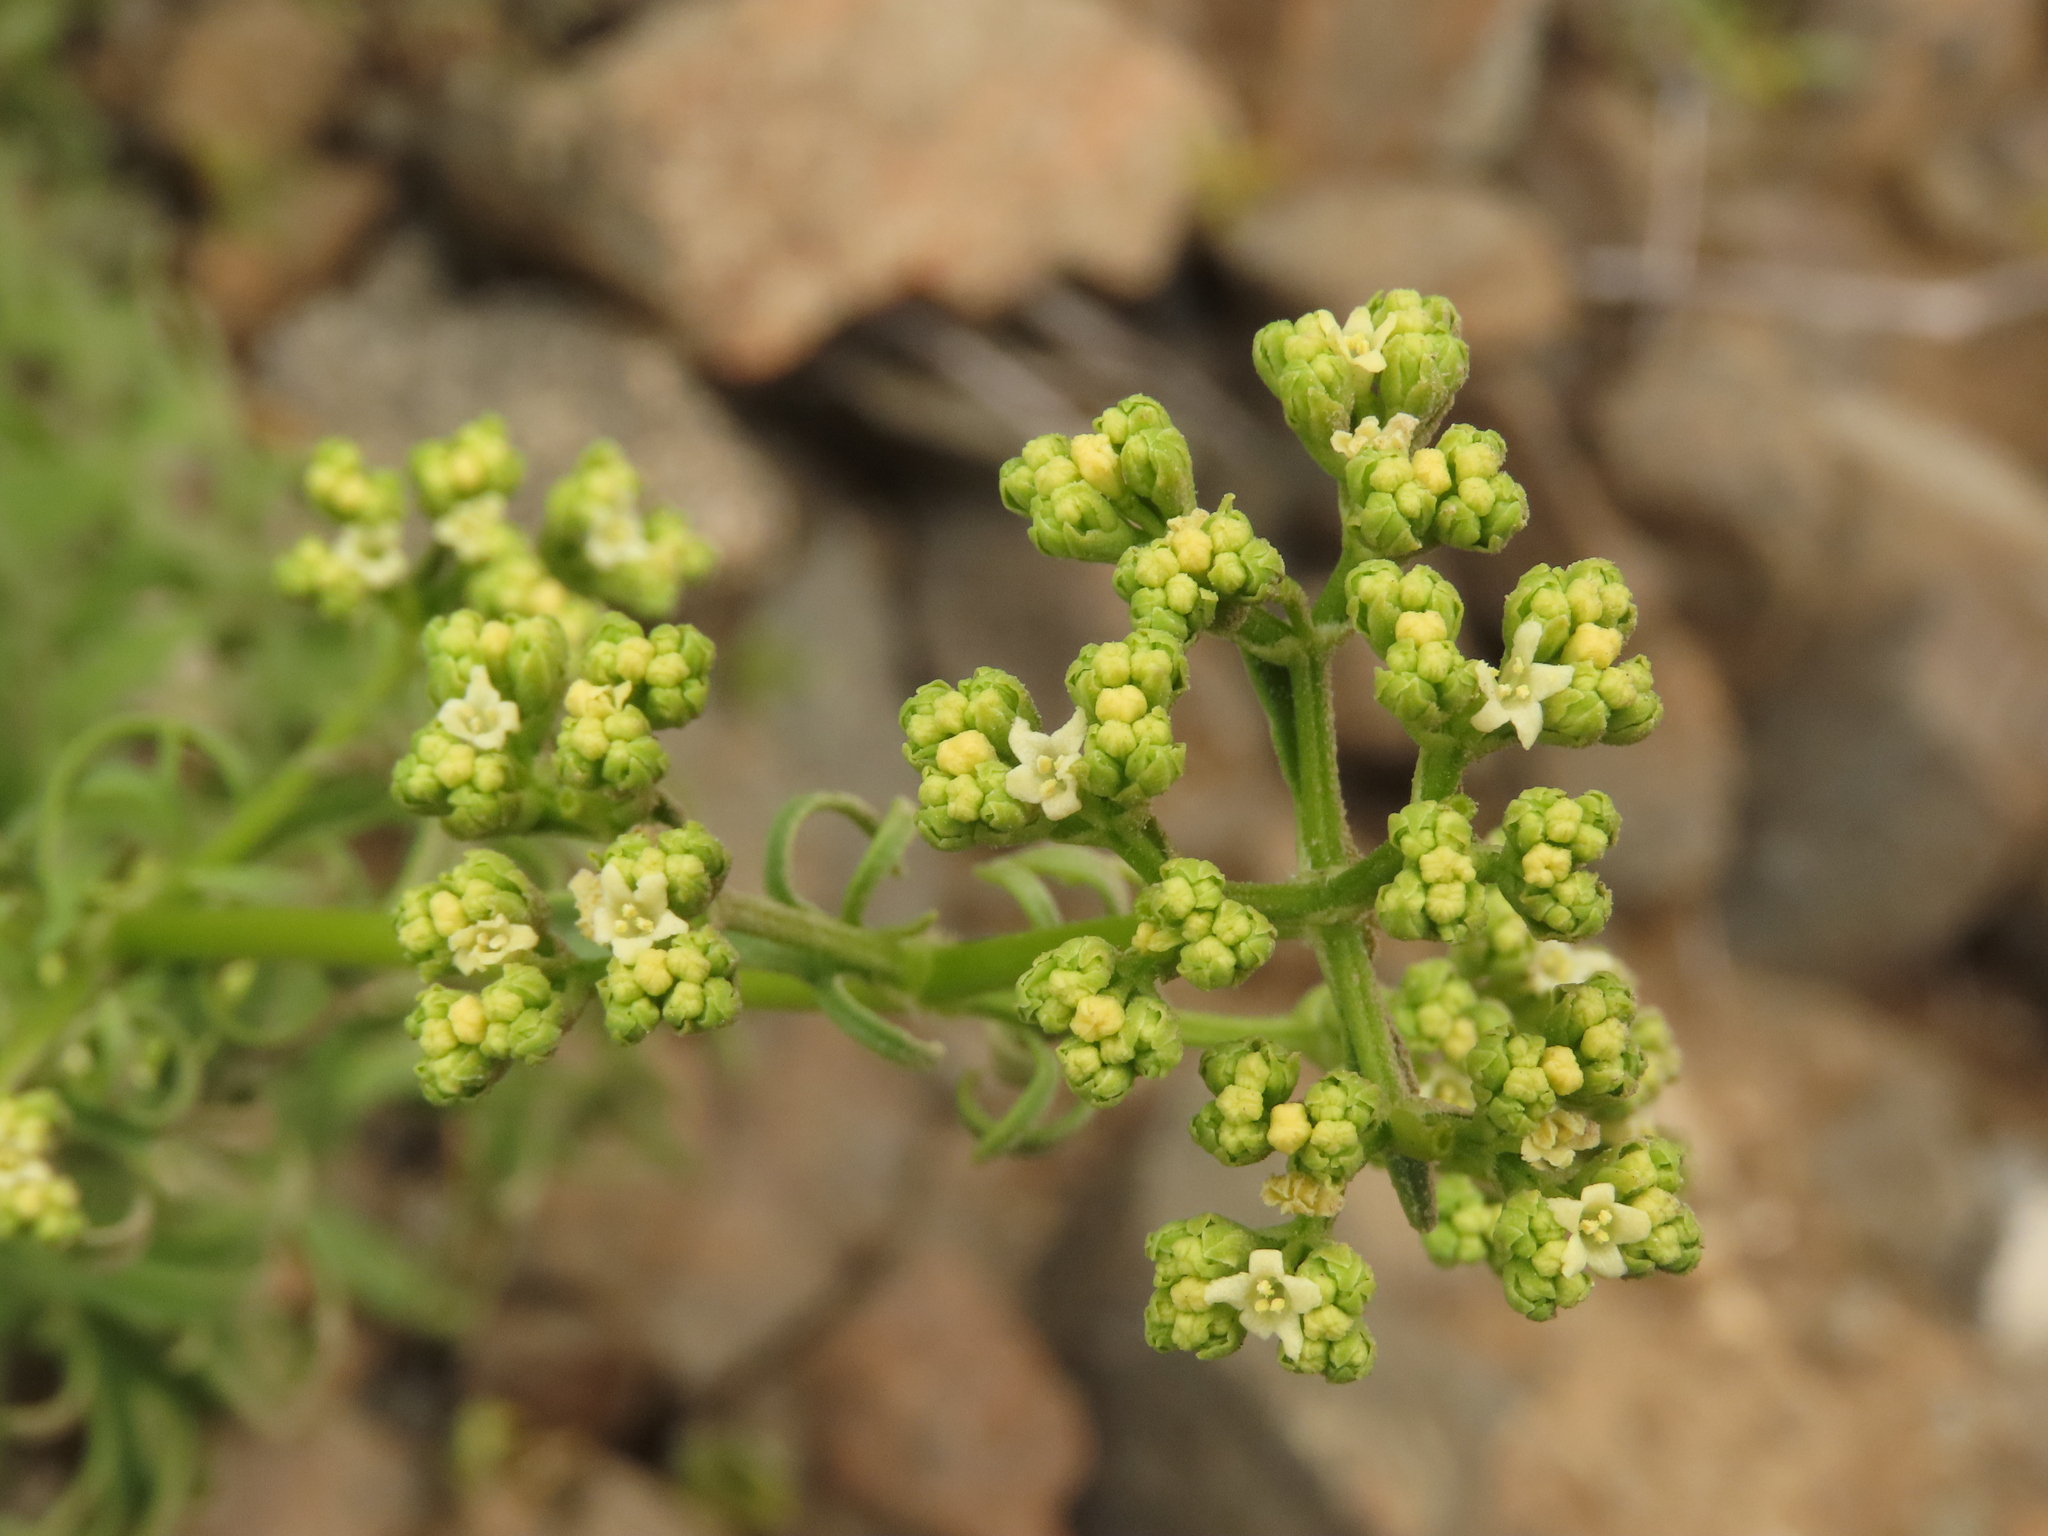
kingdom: Plantae
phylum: Tracheophyta
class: Magnoliopsida
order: Dipsacales
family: Caprifoliaceae
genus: Valeriana
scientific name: Valeriana senecioides
